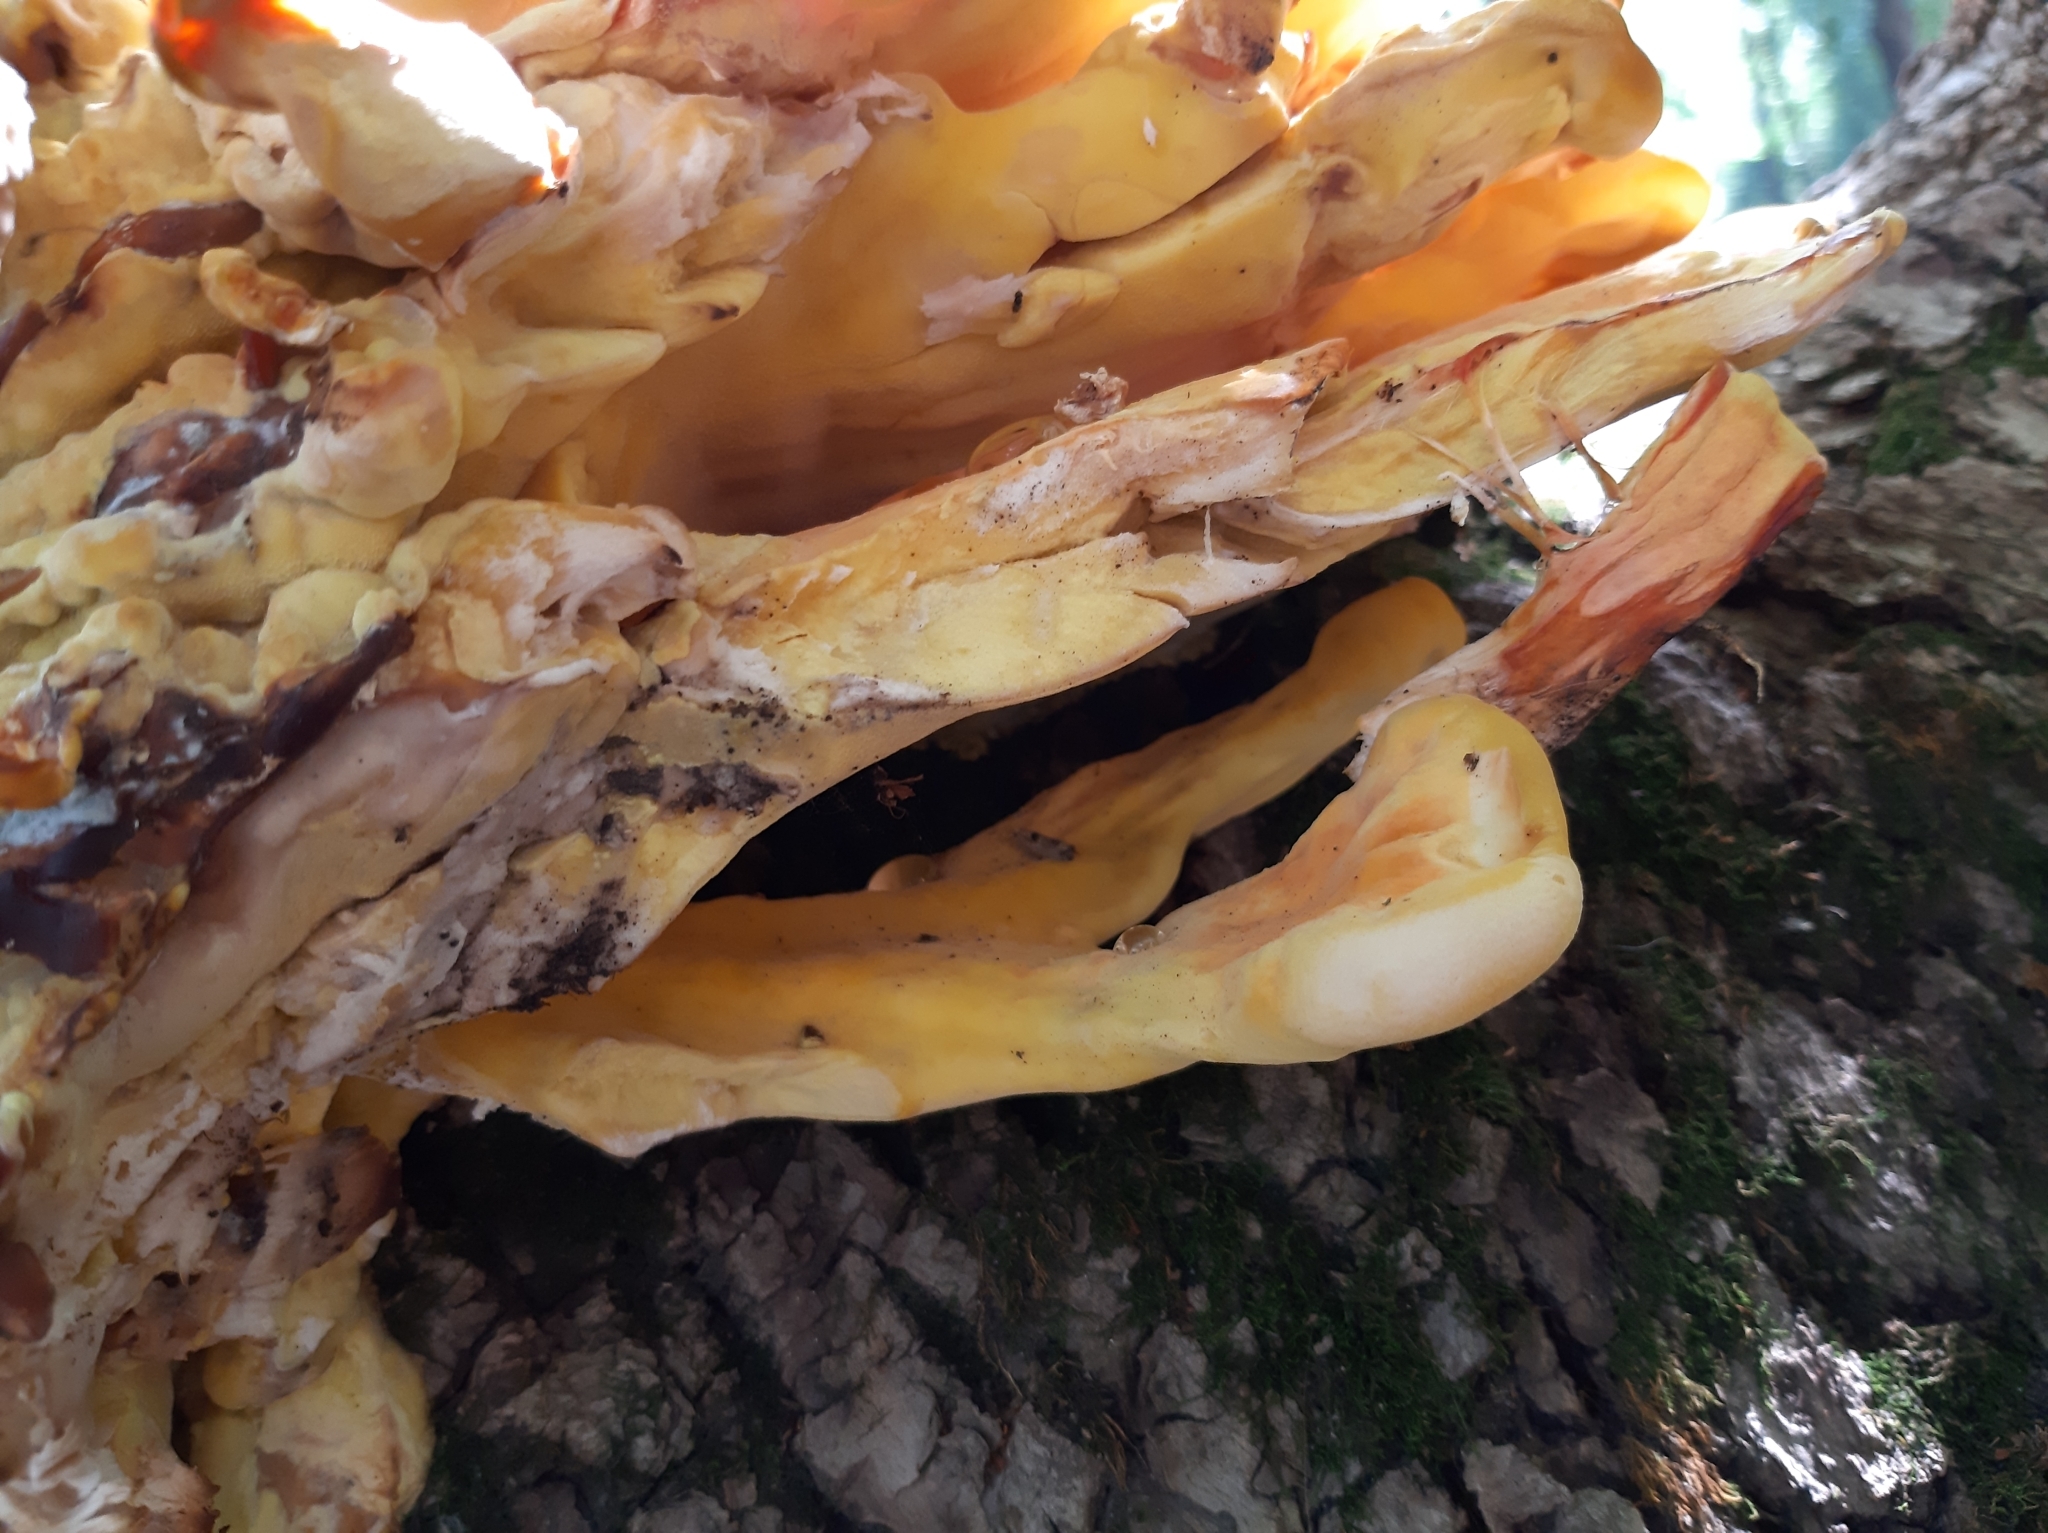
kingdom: Fungi
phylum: Basidiomycota
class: Agaricomycetes
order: Polyporales
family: Laetiporaceae
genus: Laetiporus
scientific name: Laetiporus sulphureus
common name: Chicken of the woods
